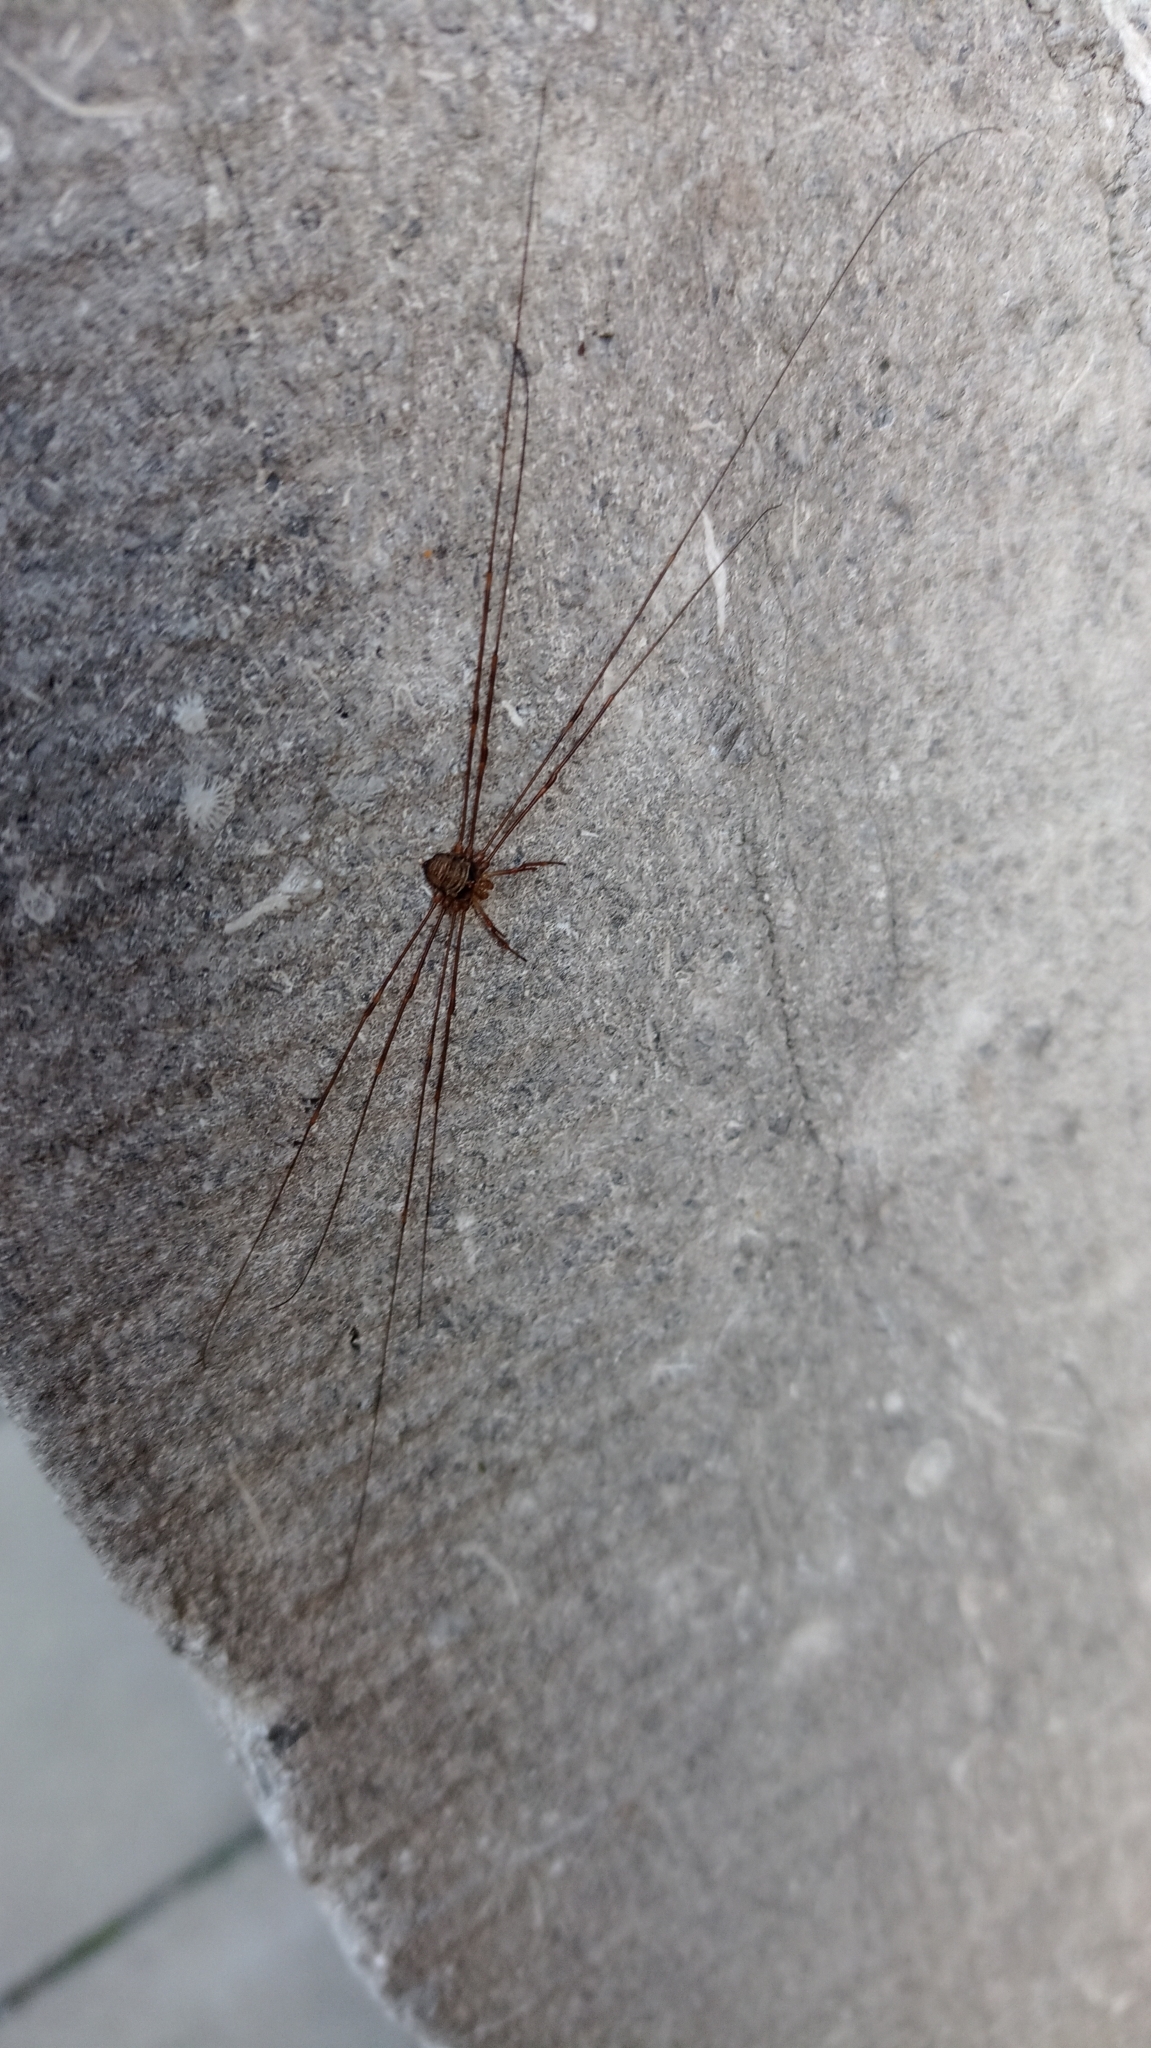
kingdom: Animalia
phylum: Arthropoda
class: Arachnida
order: Opiliones
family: Phalangiidae
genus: Dicranopalpus
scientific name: Dicranopalpus ramosus
